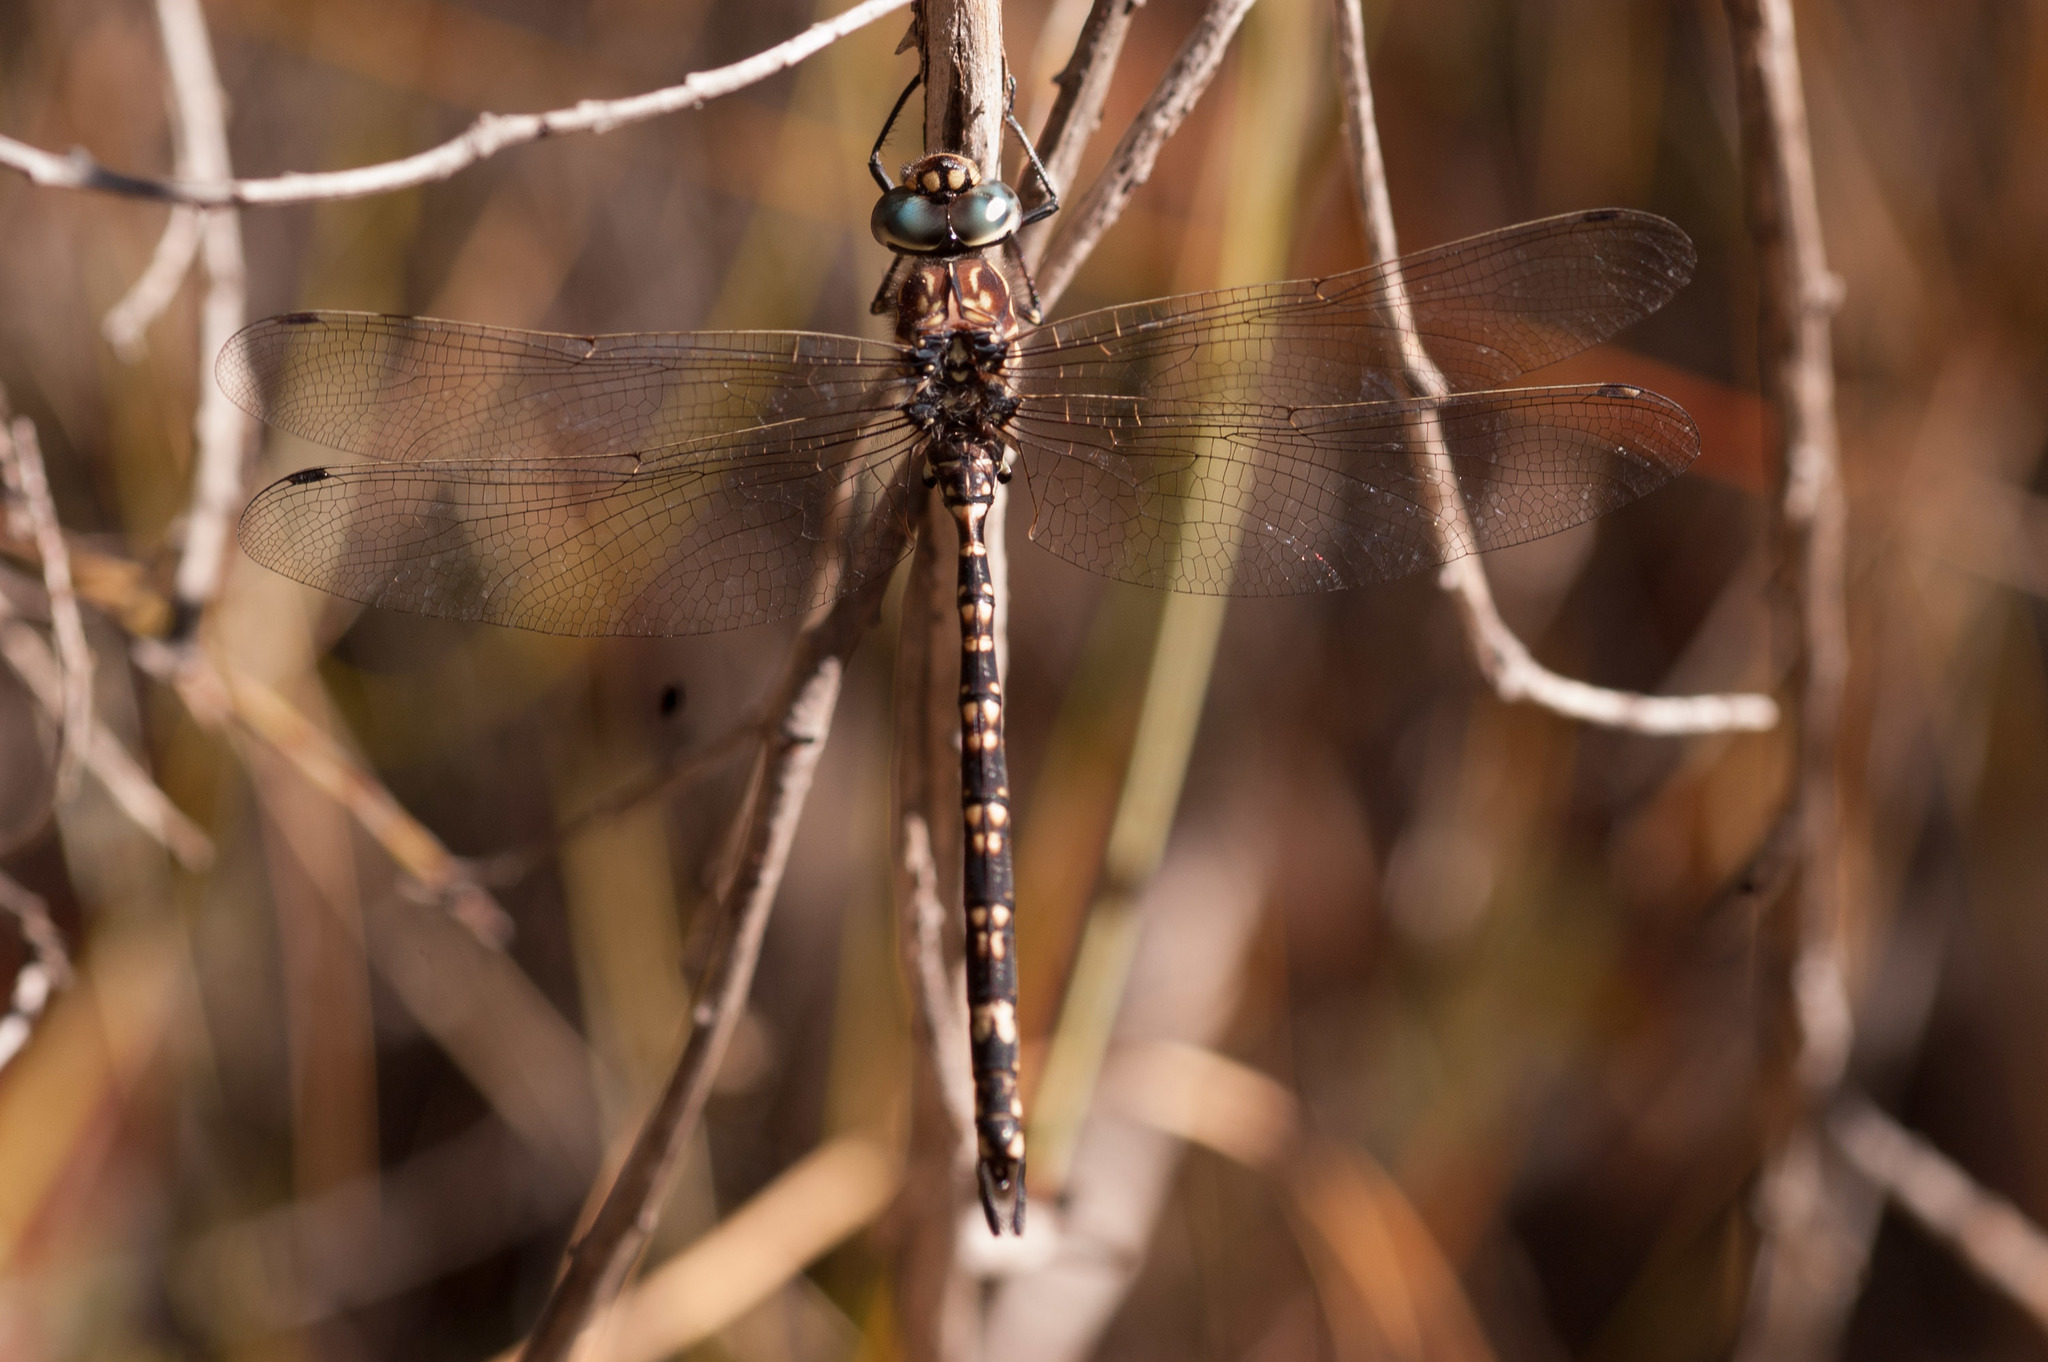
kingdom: Animalia
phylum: Arthropoda
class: Insecta
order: Odonata
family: Aeshnidae
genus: Austroaeschna
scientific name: Austroaeschna parvistigma
